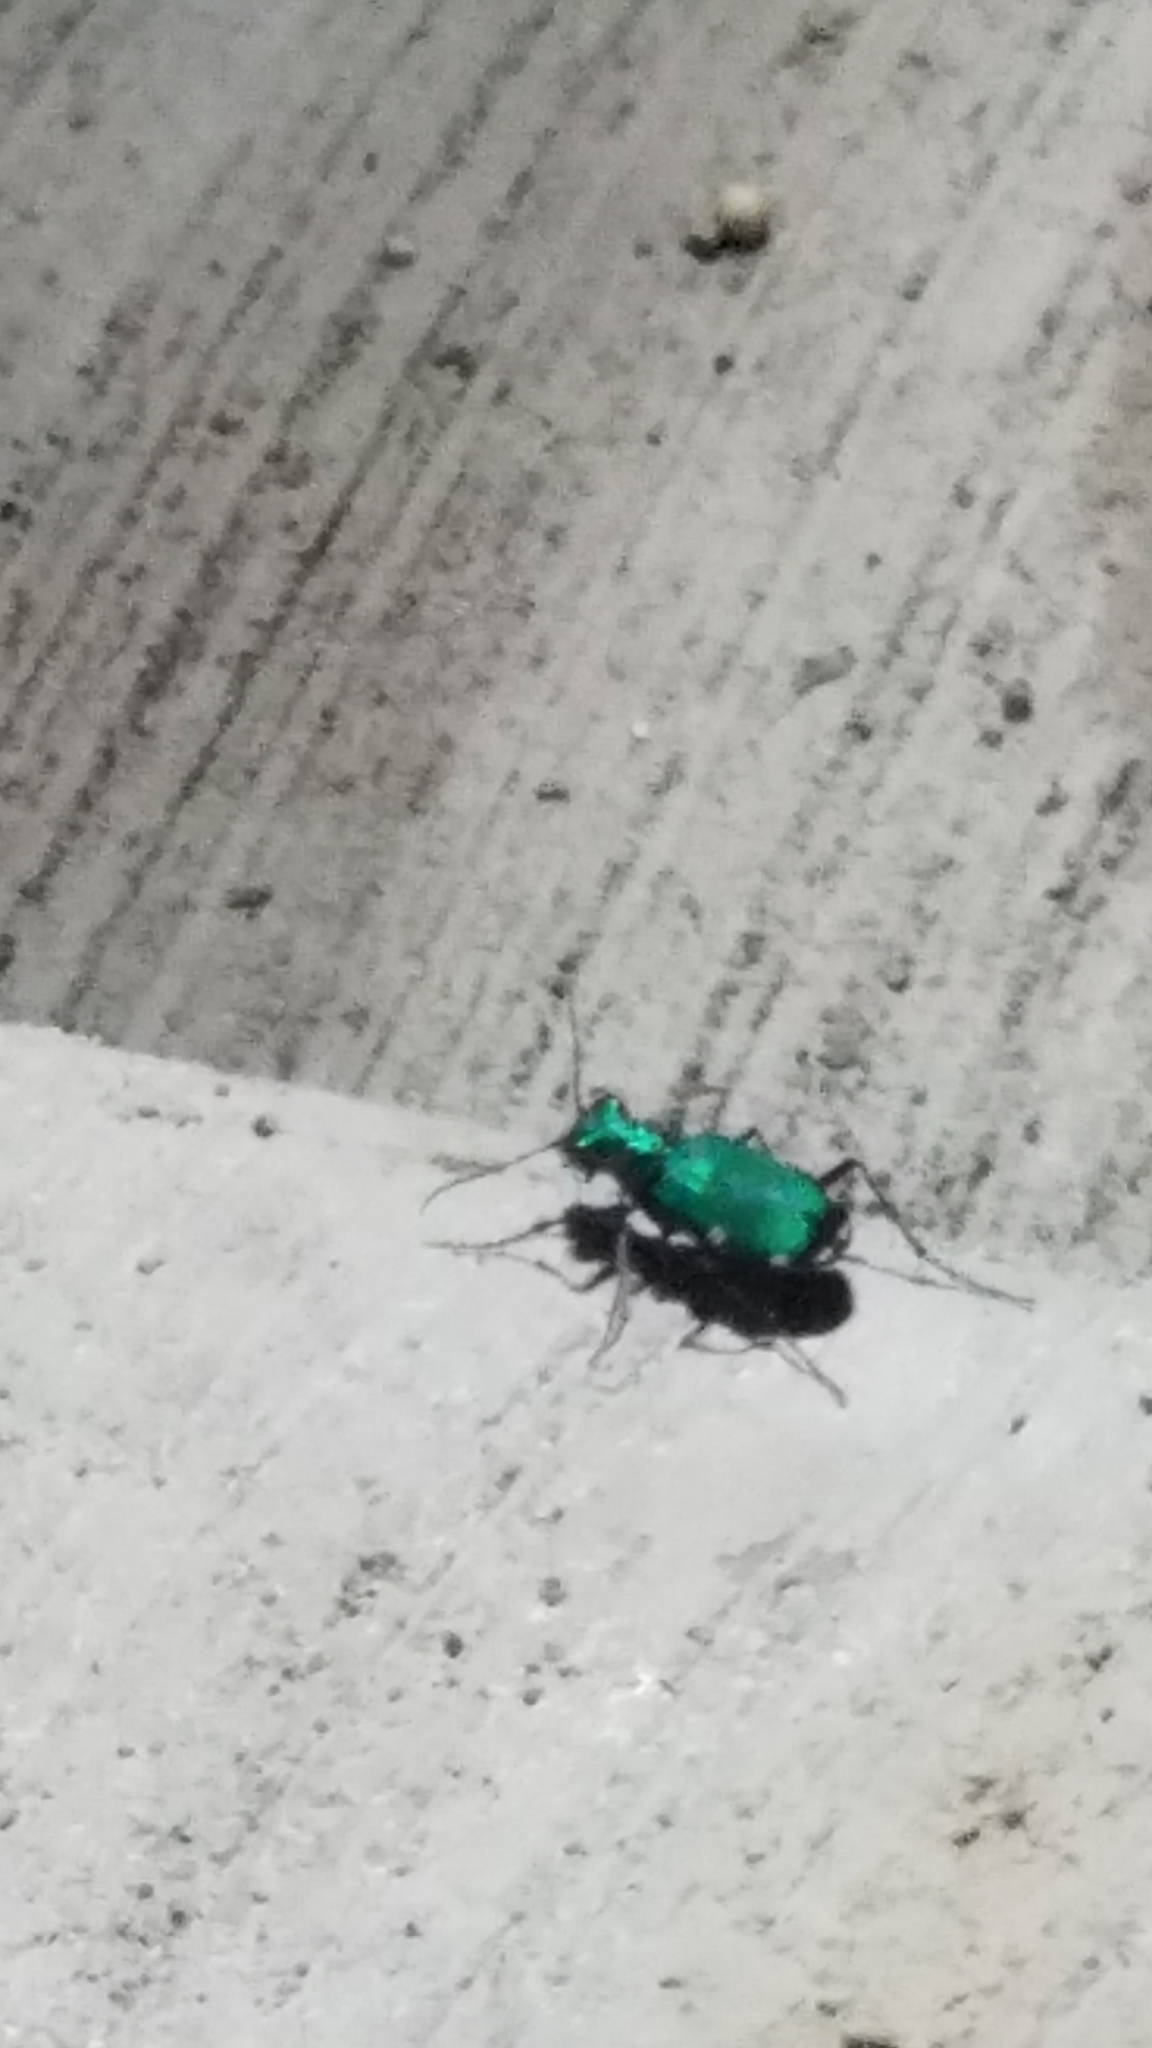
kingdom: Animalia
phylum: Arthropoda
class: Insecta
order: Coleoptera
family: Carabidae
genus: Cicindela
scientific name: Cicindela sexguttata
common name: Six-spotted tiger beetle
